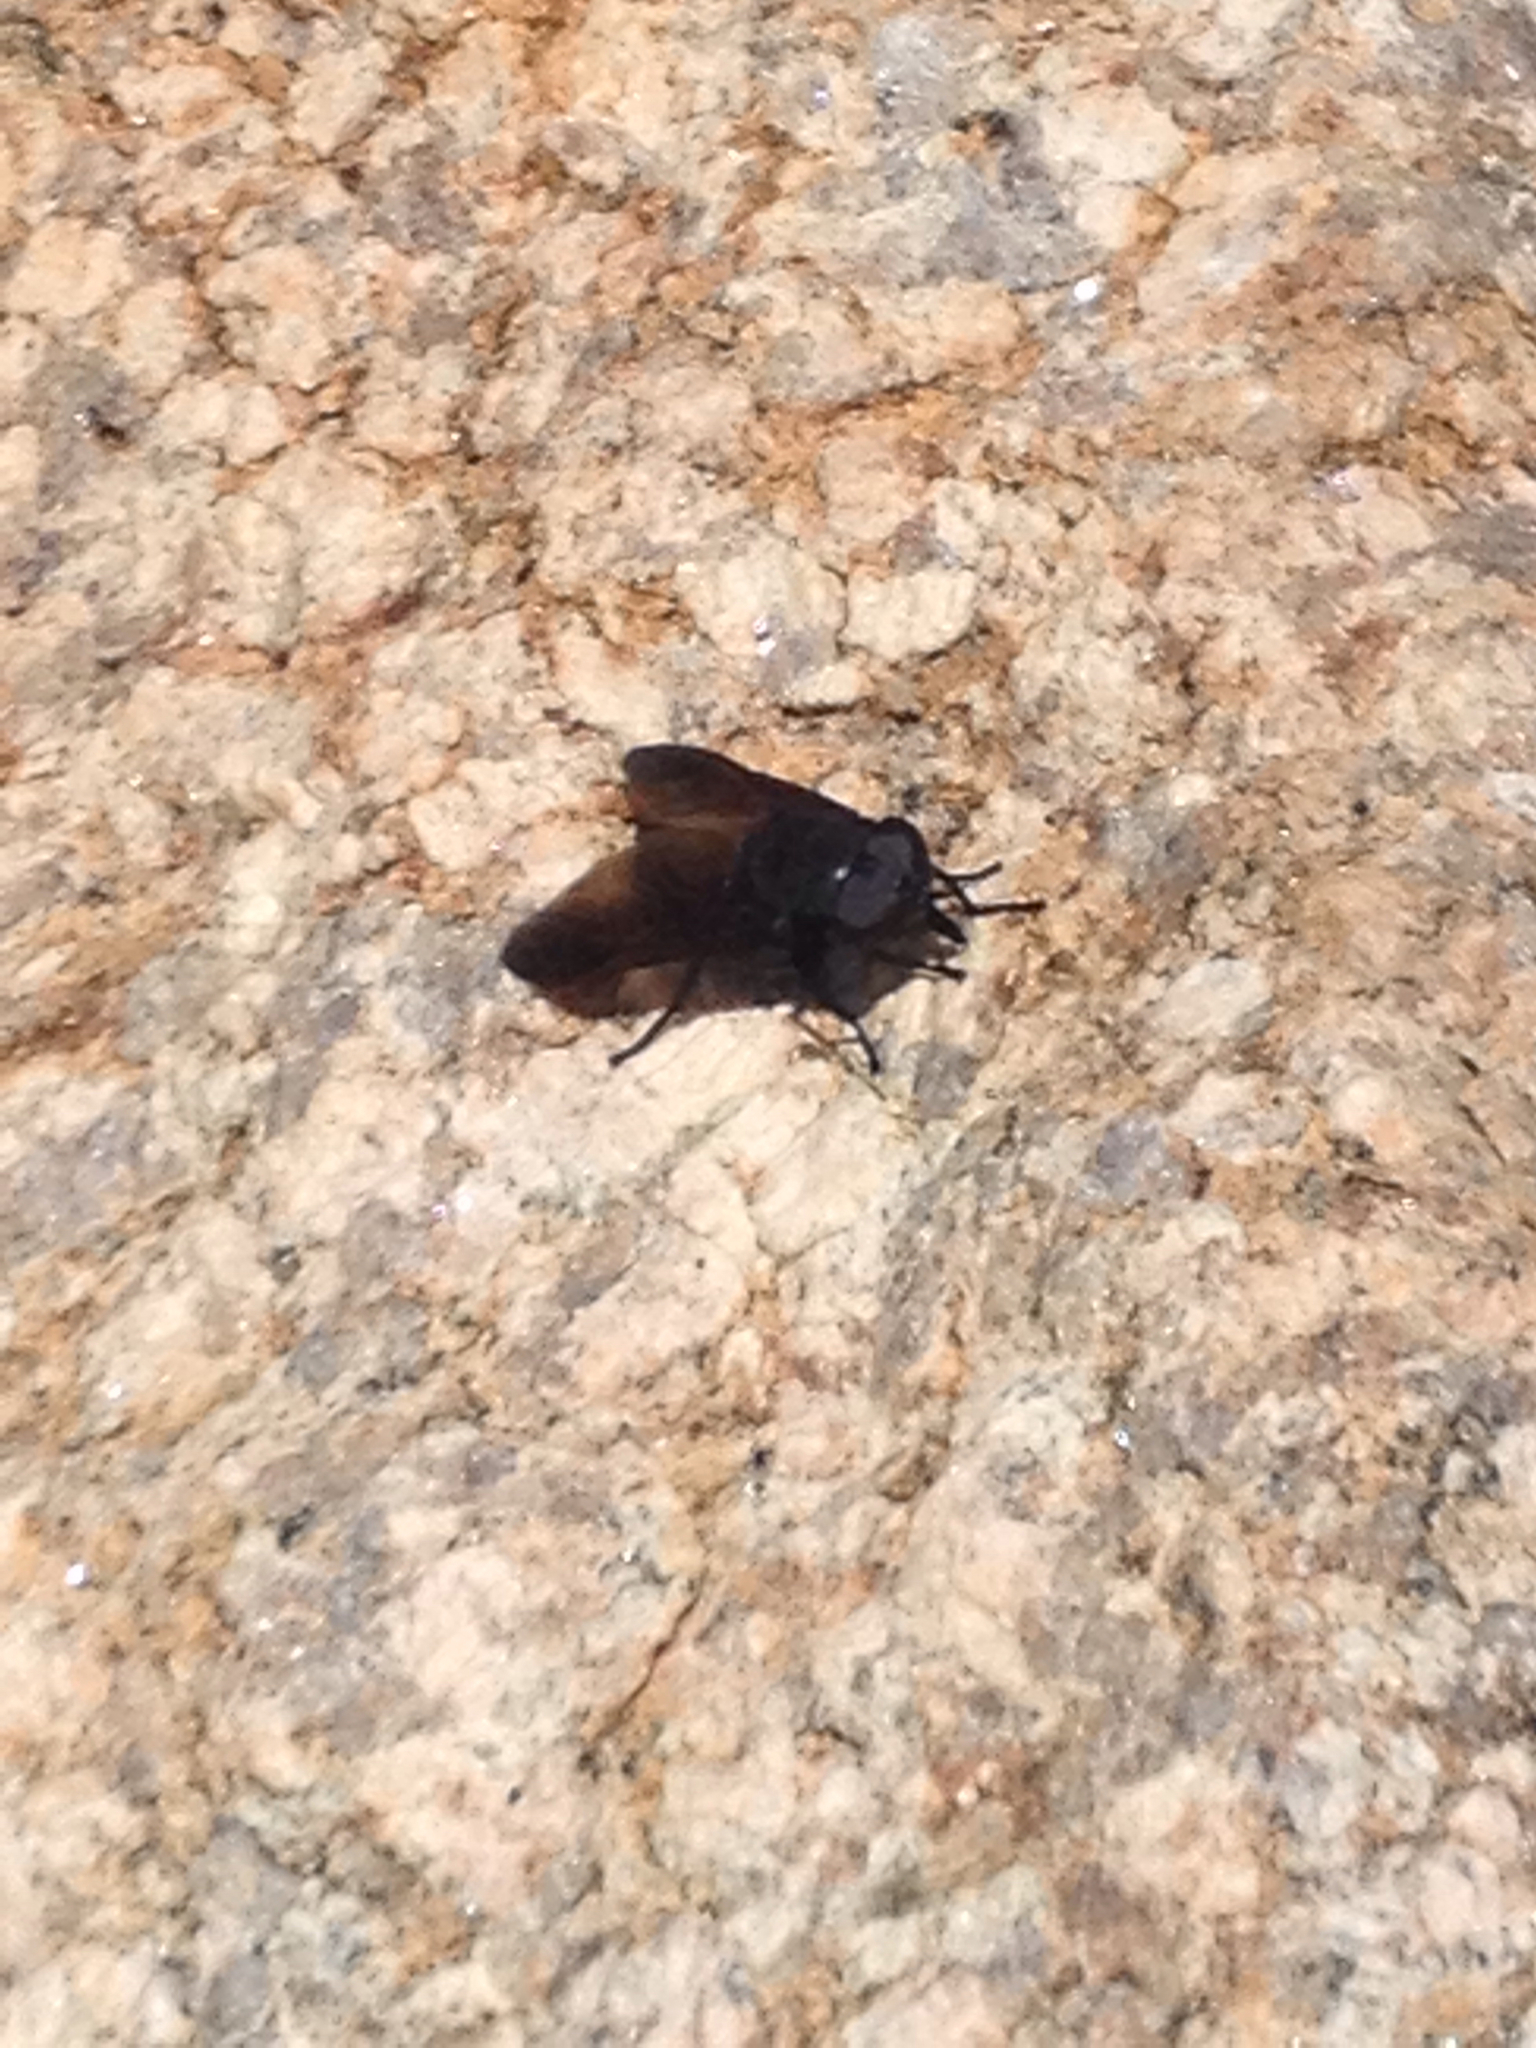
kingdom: Animalia
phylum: Arthropoda
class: Insecta
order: Diptera
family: Tabanidae
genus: Tabanus
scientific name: Tabanus atratus
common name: Black horse fly
